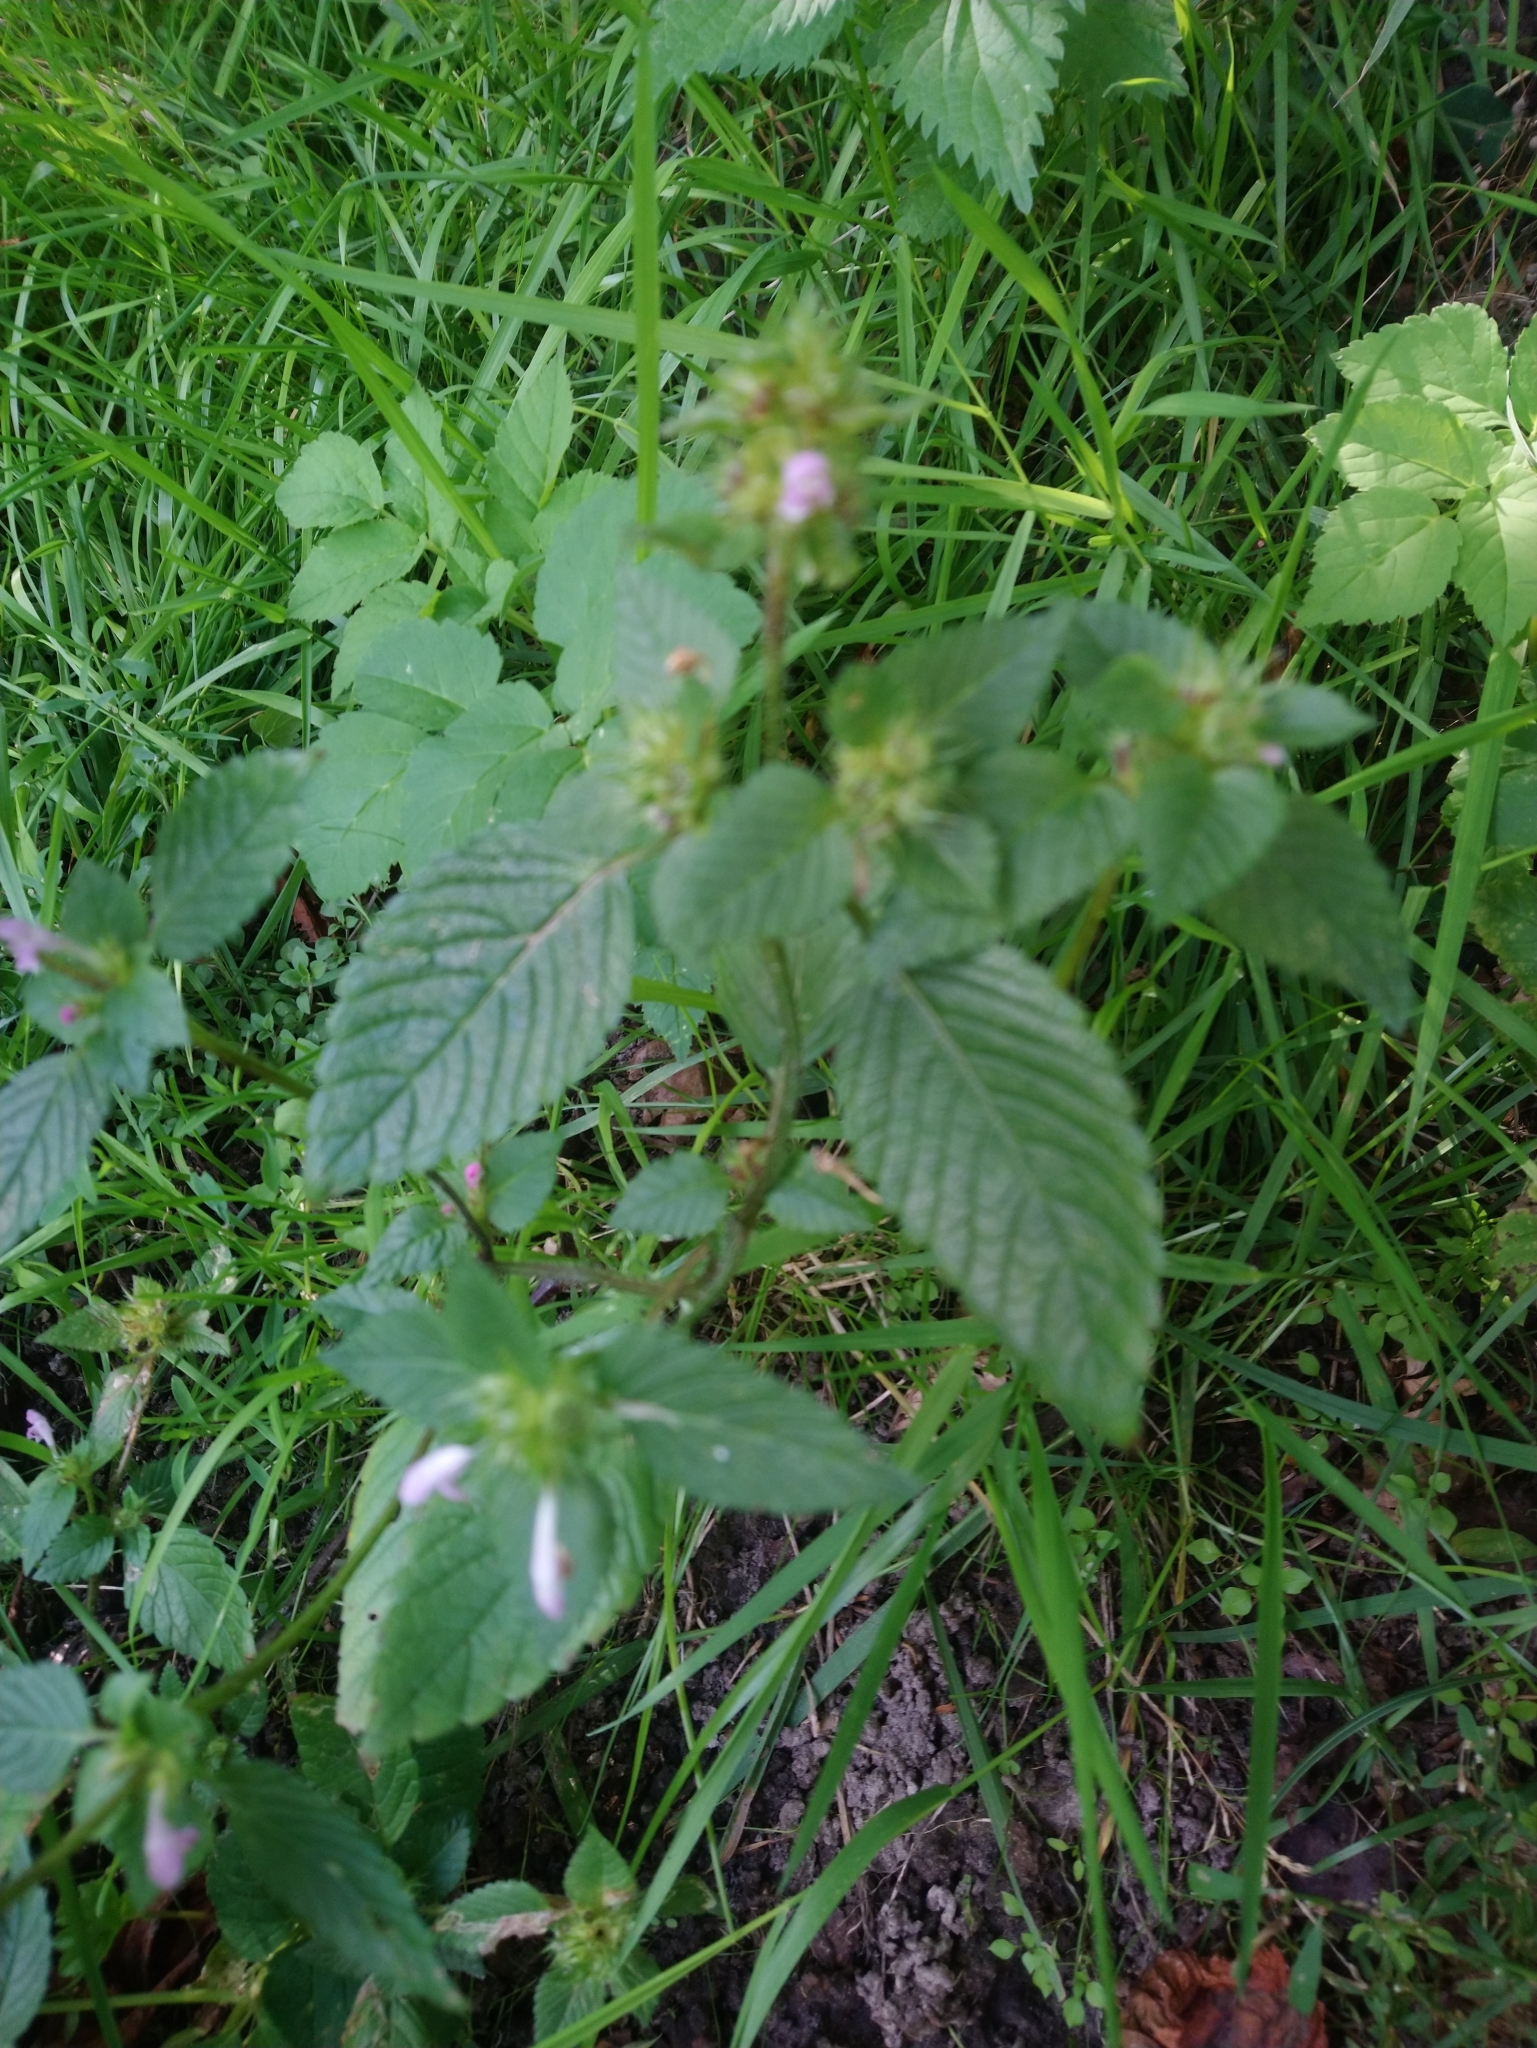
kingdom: Plantae
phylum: Tracheophyta
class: Magnoliopsida
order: Lamiales
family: Lamiaceae
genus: Galeopsis
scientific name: Galeopsis tetrahit
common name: Common hemp-nettle
